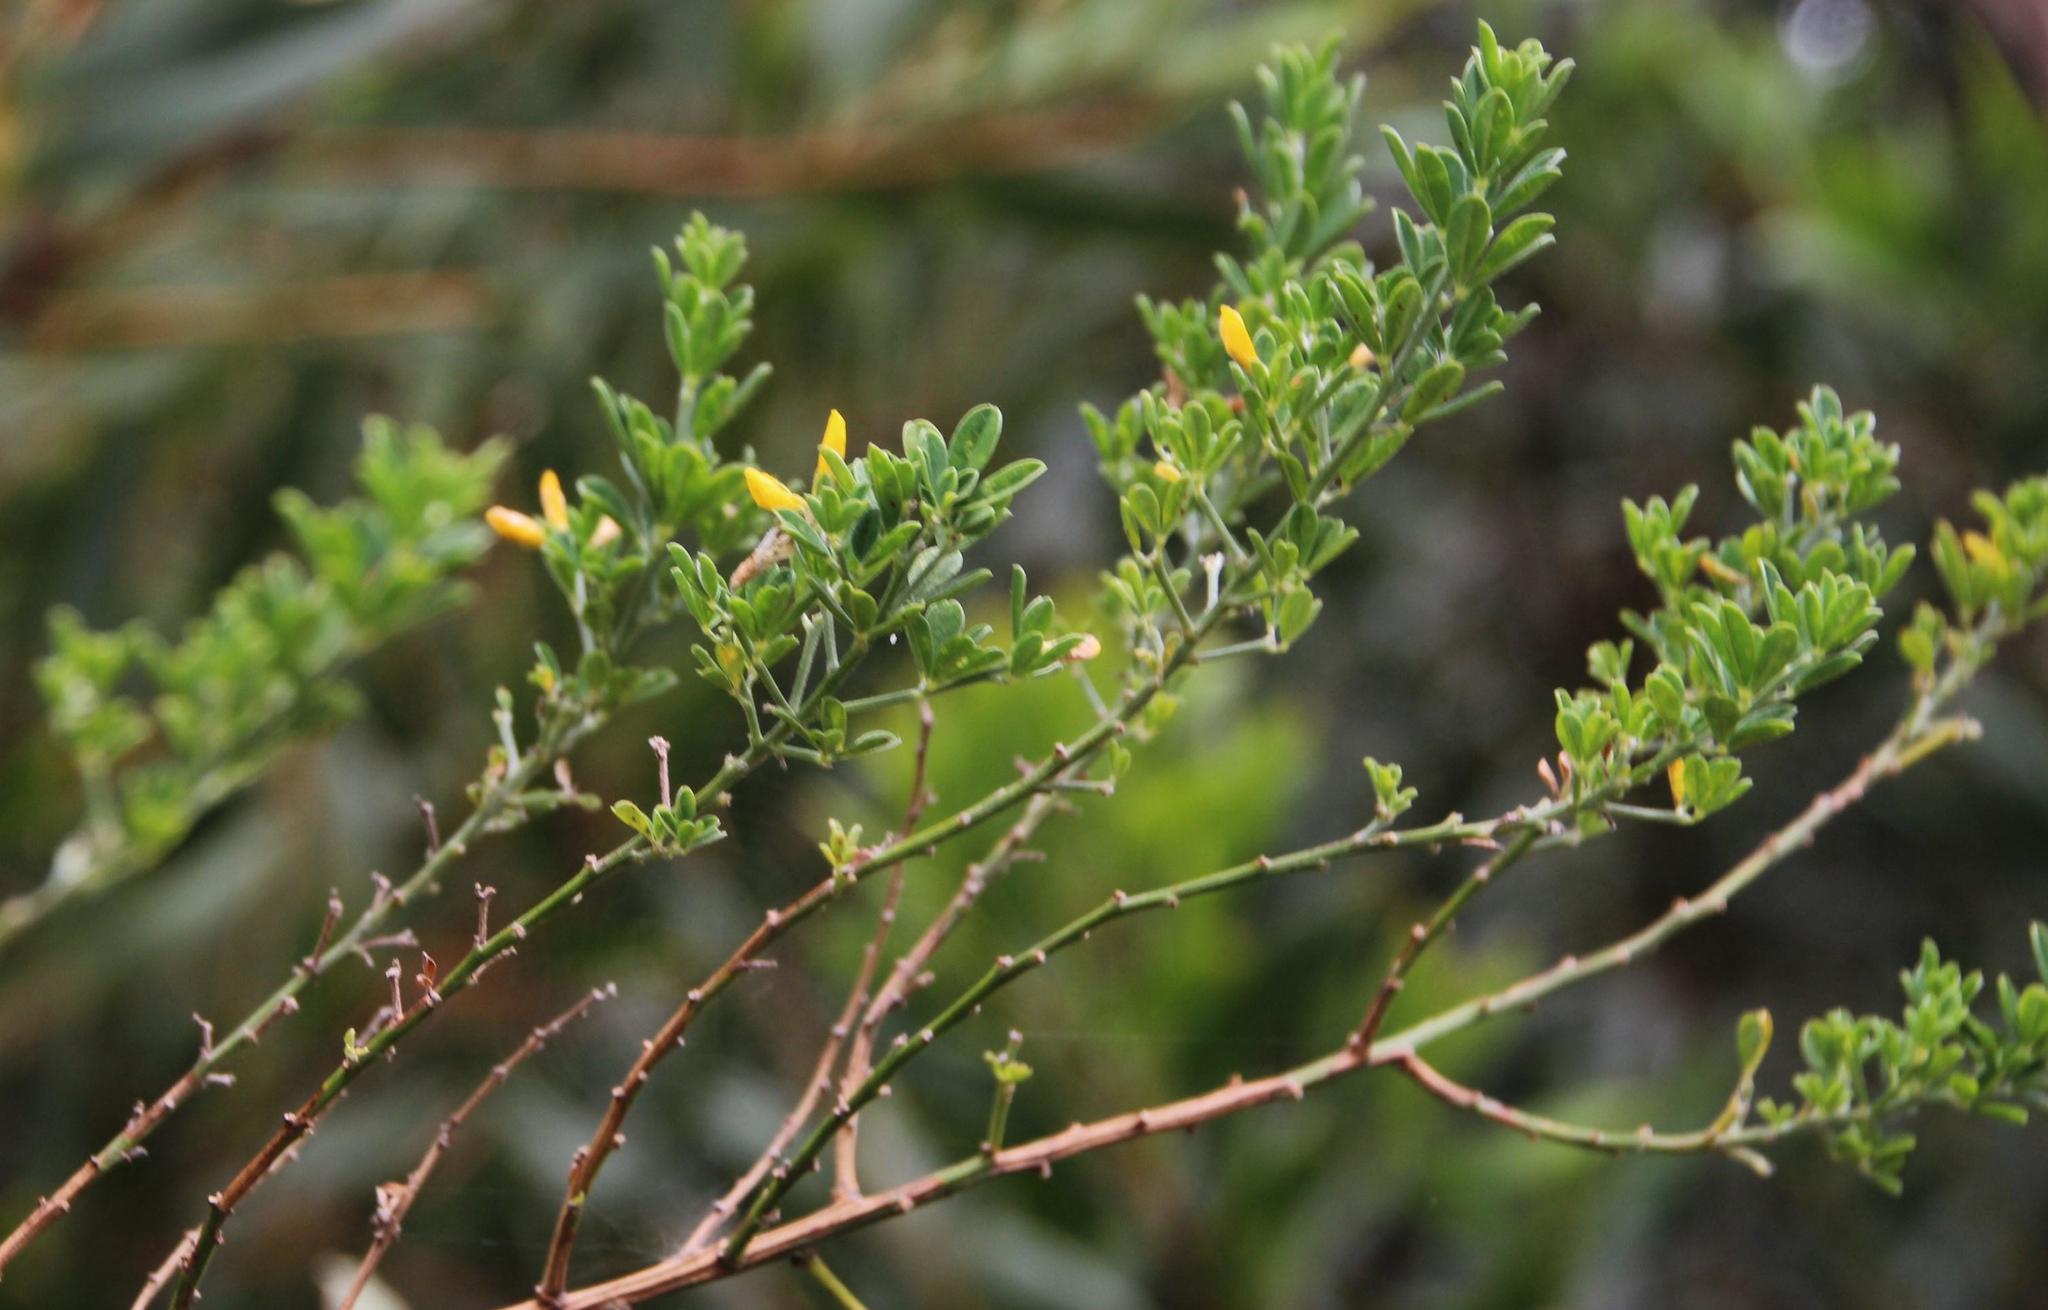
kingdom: Plantae
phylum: Tracheophyta
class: Magnoliopsida
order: Fabales
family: Fabaceae
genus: Genista
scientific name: Genista monspessulana
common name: Montpellier broom
